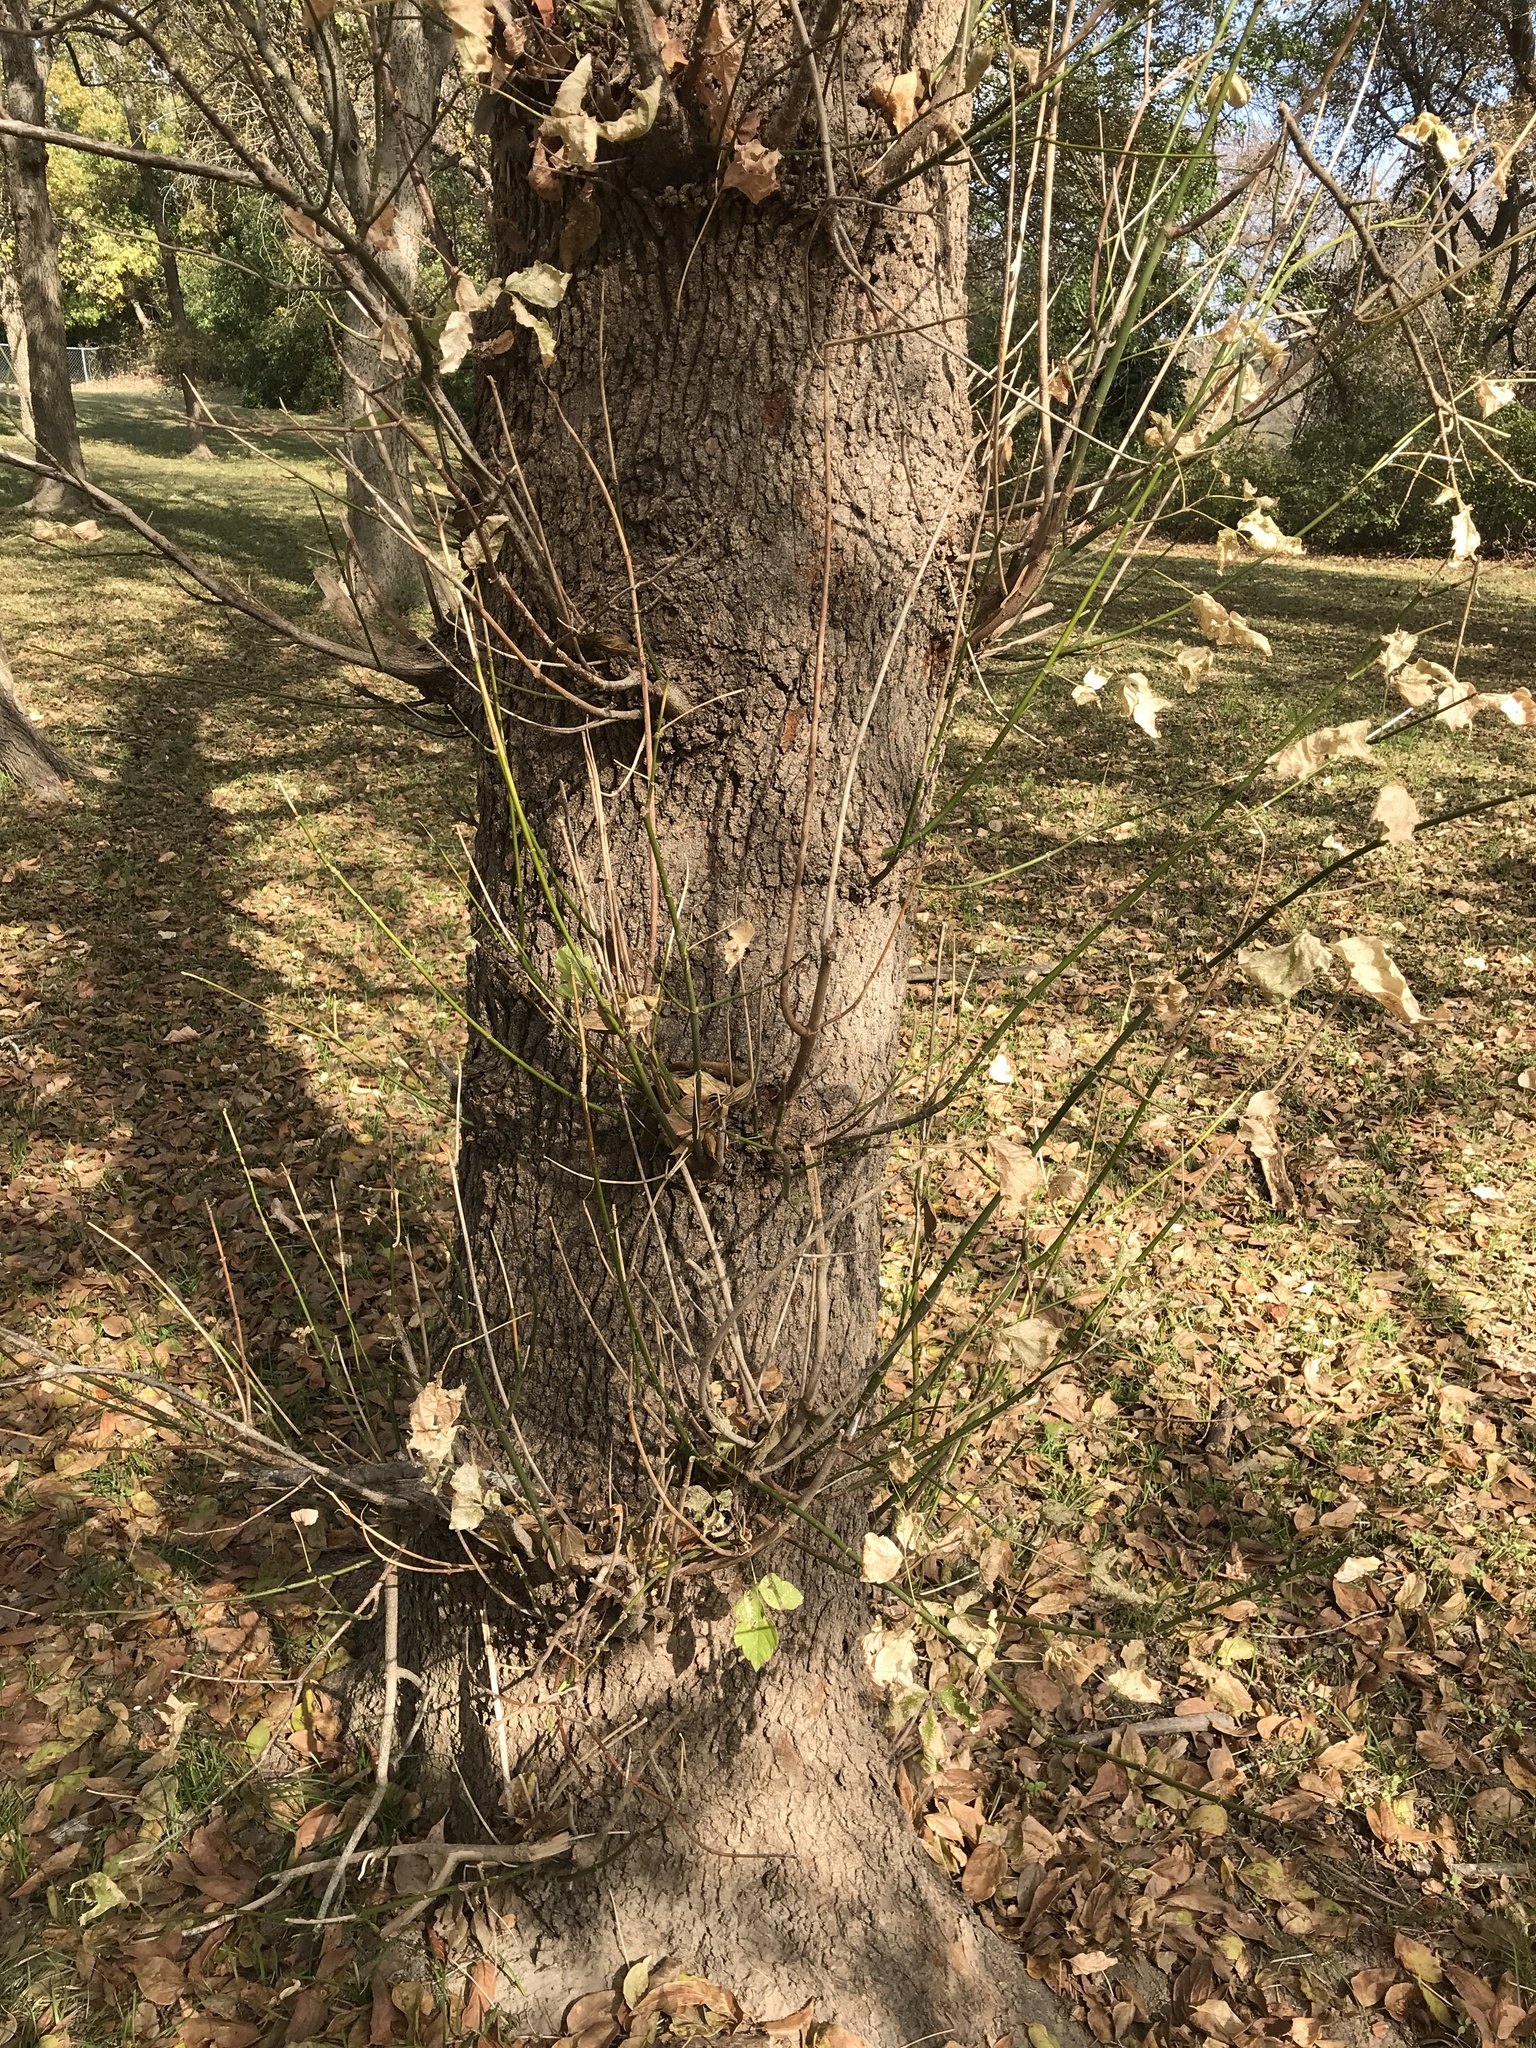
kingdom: Plantae
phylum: Tracheophyta
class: Magnoliopsida
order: Sapindales
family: Sapindaceae
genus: Acer
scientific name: Acer negundo
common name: Ashleaf maple
